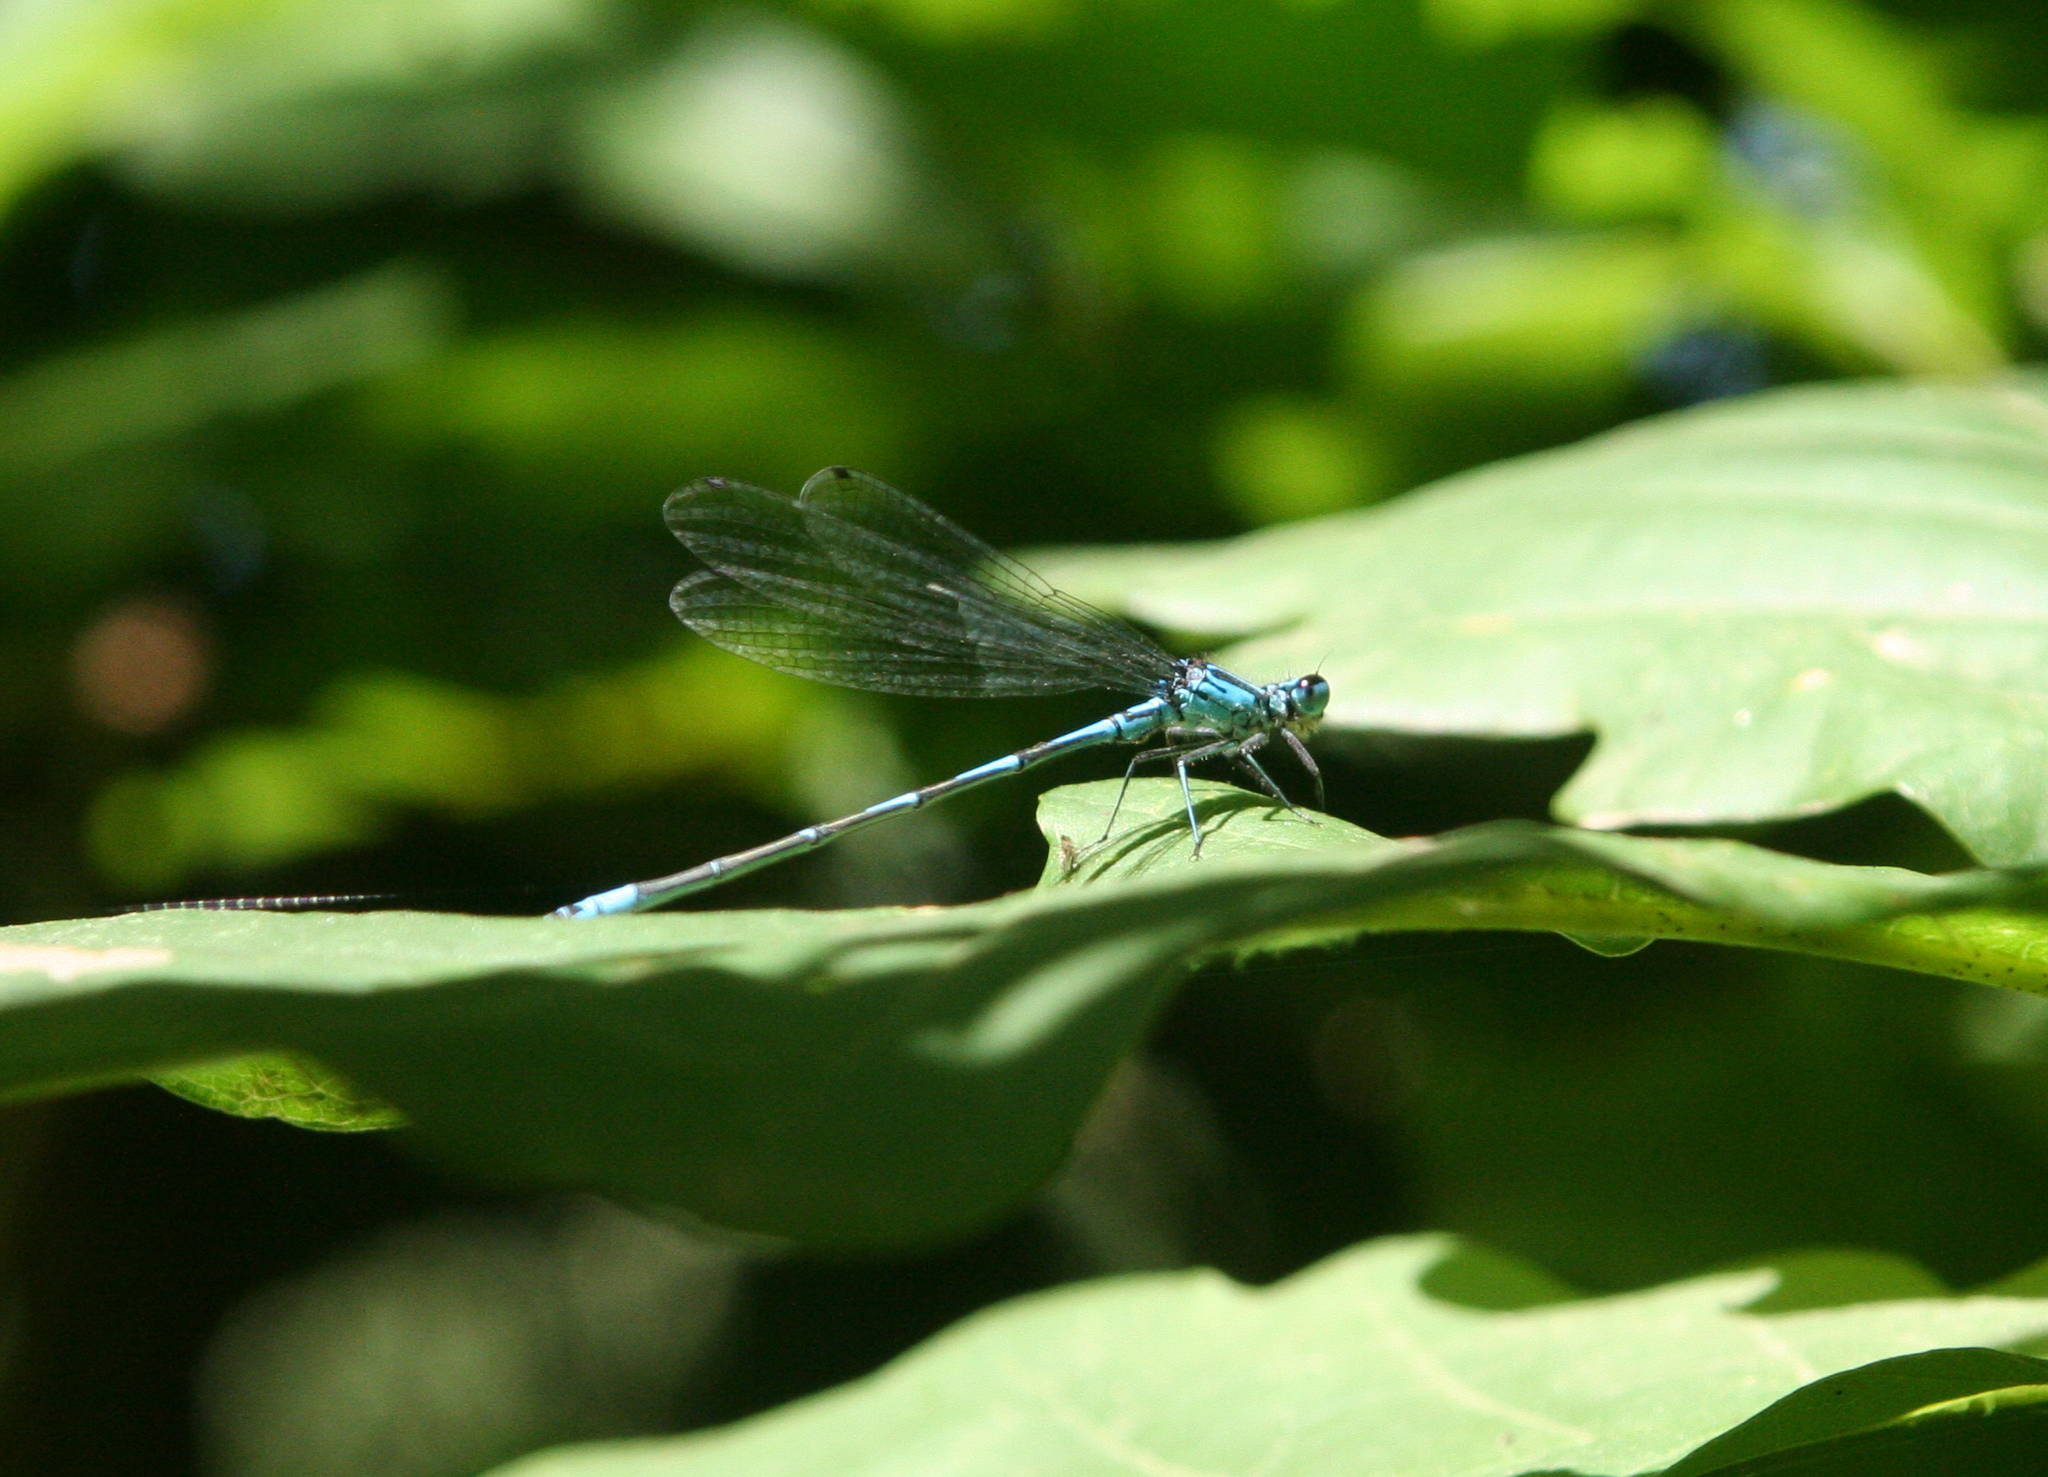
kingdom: Animalia
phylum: Arthropoda
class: Insecta
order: Odonata
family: Coenagrionidae
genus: Coenagrion
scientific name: Coenagrion ponticum
